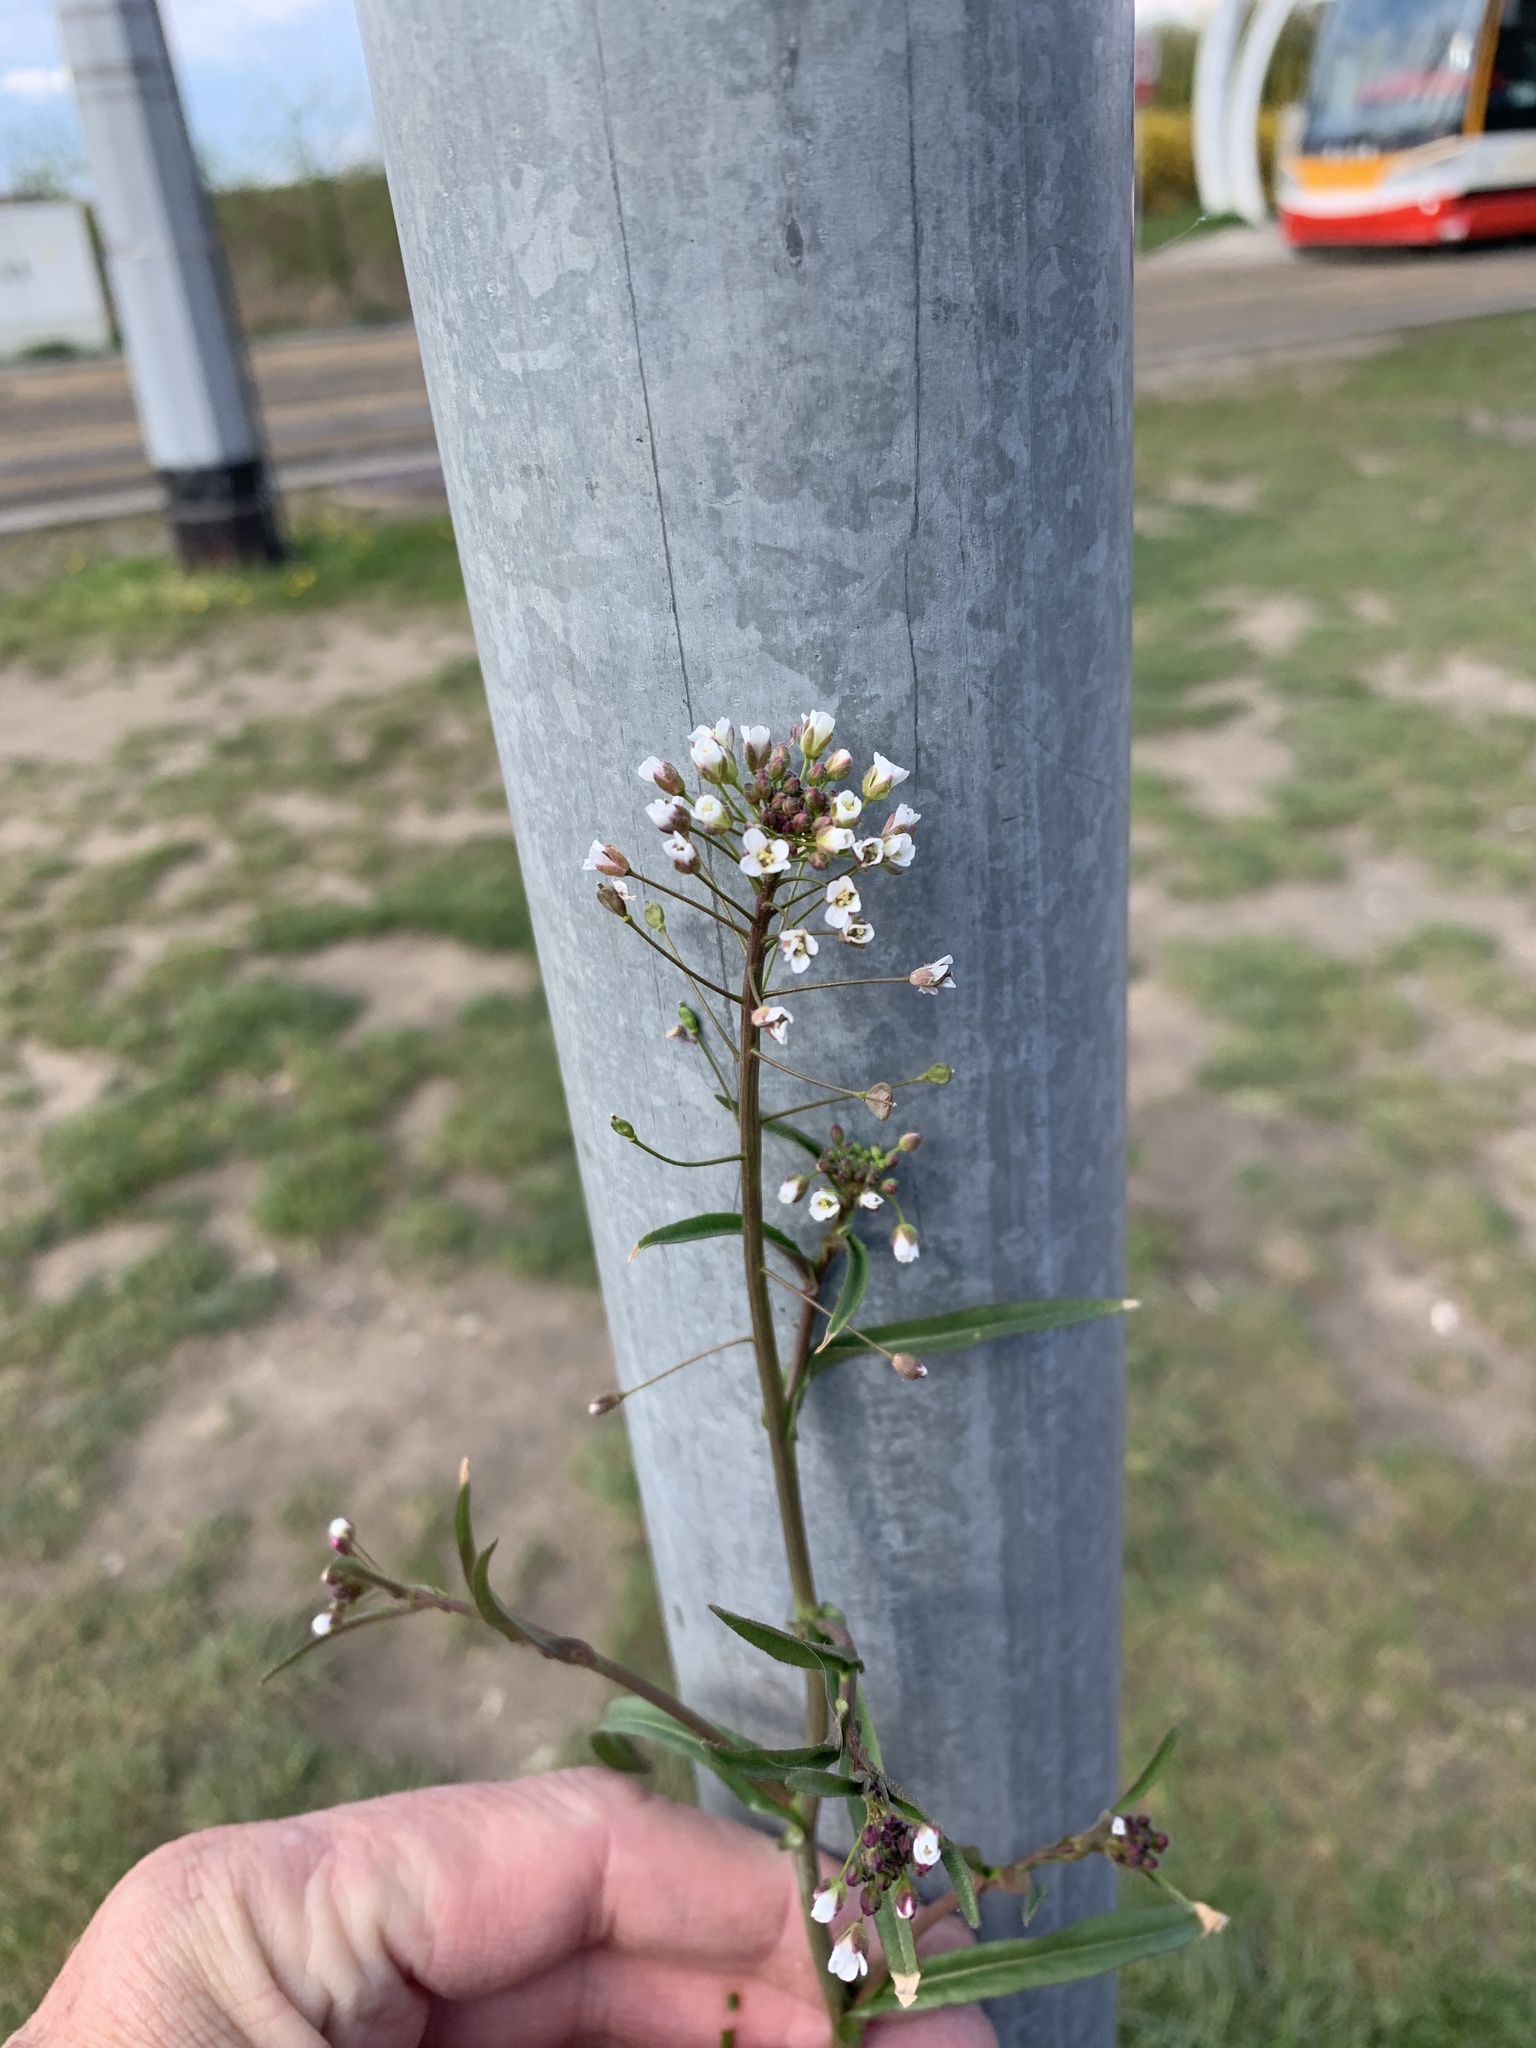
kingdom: Plantae
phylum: Tracheophyta
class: Magnoliopsida
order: Brassicales
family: Brassicaceae
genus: Capsella
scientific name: Capsella bursa-pastoris
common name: Shepherd's purse
